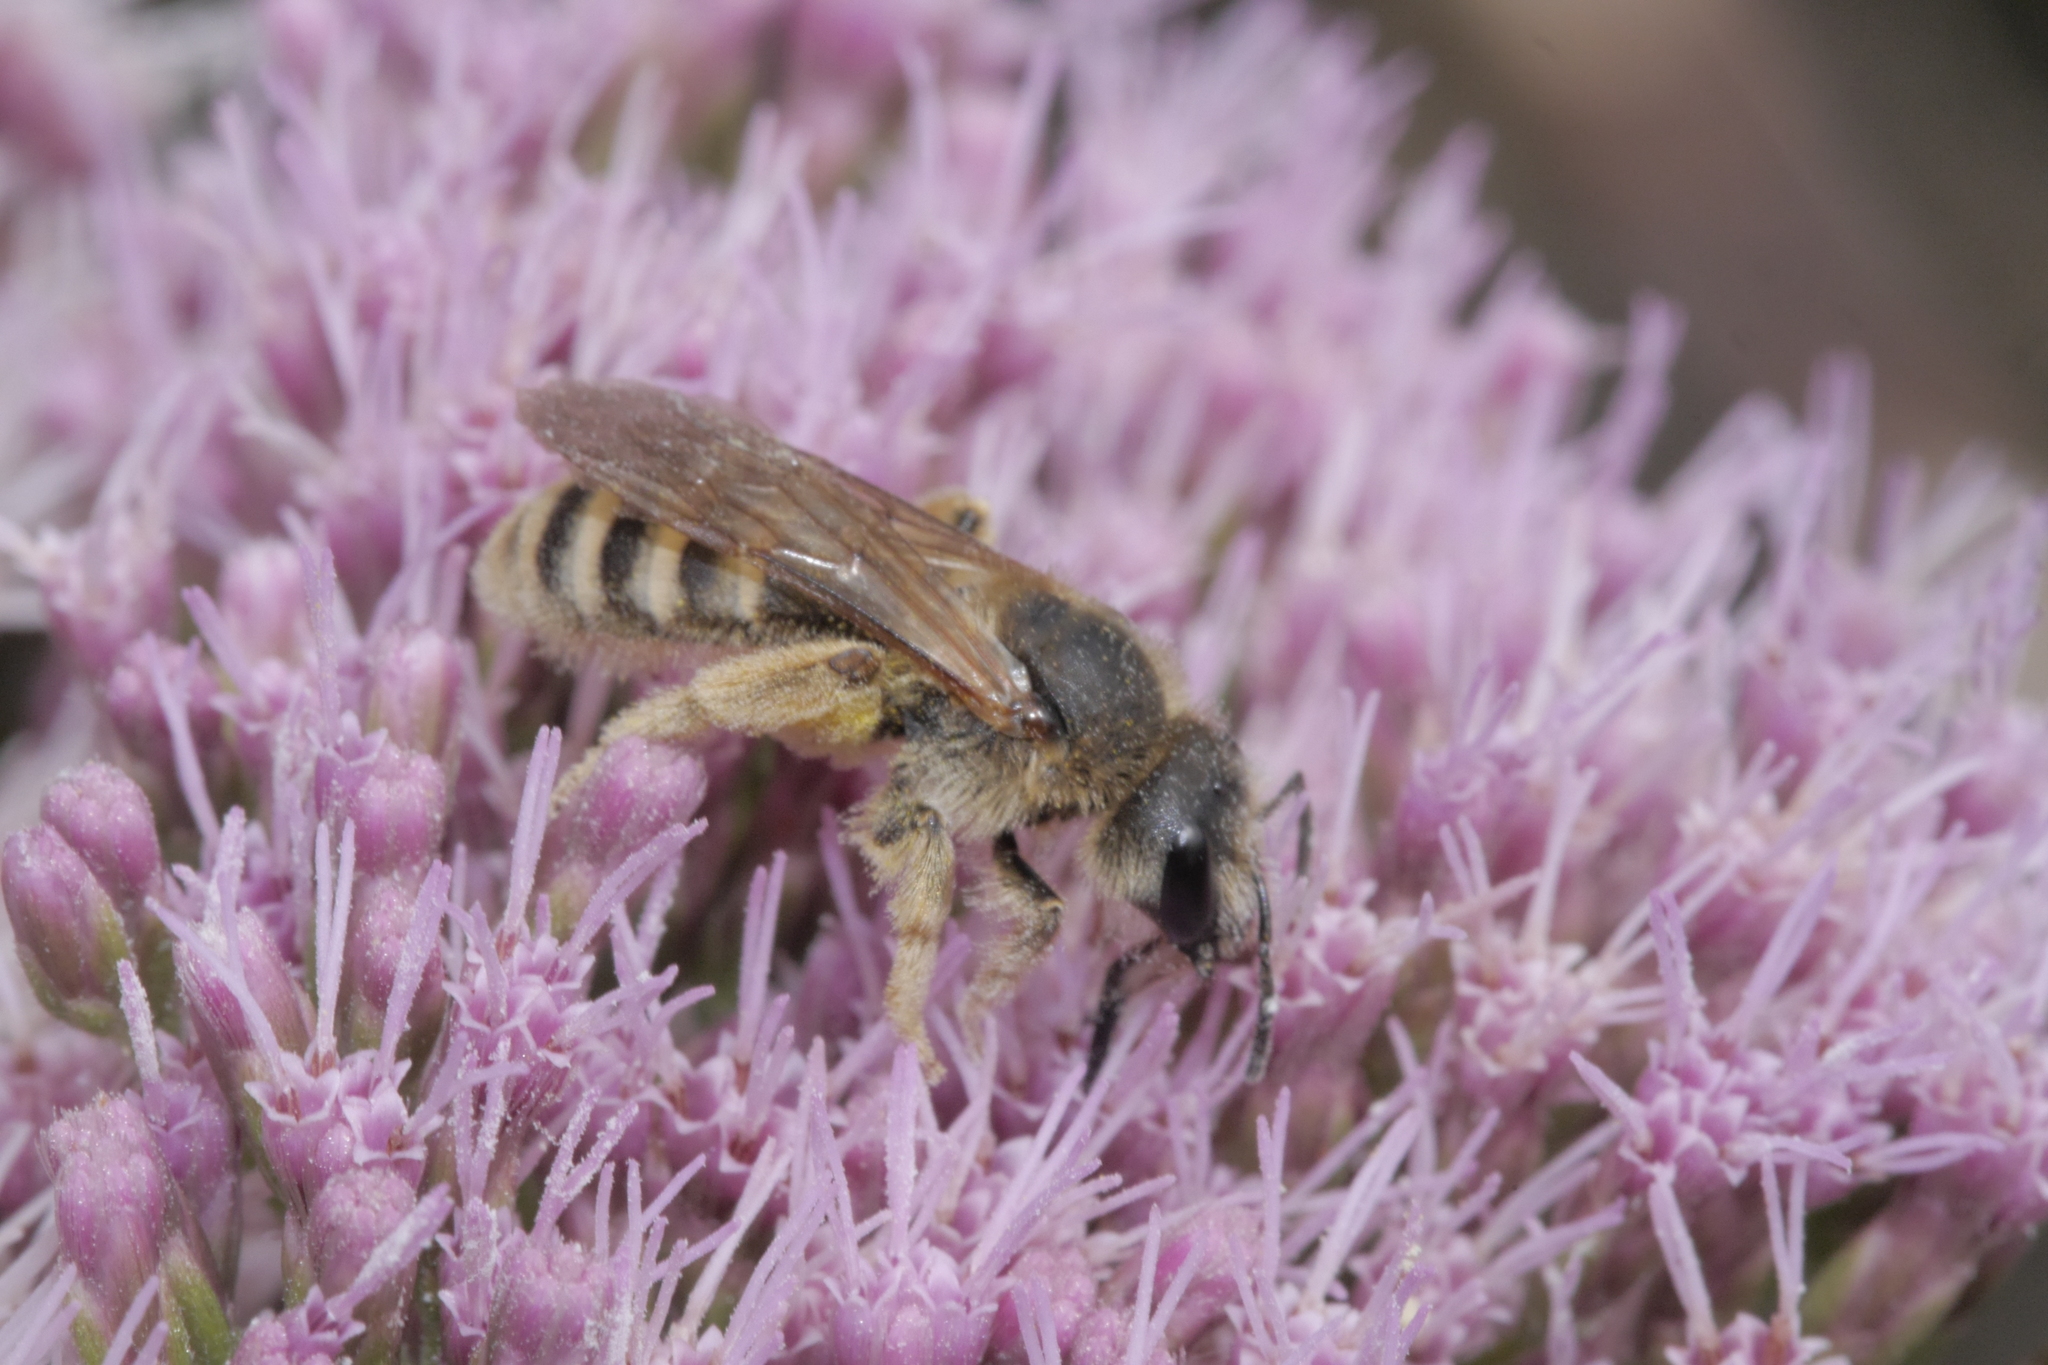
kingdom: Animalia
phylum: Arthropoda
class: Insecta
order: Hymenoptera
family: Halictidae
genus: Halictus
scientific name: Halictus scabiosae
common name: Great banded furrow bee
